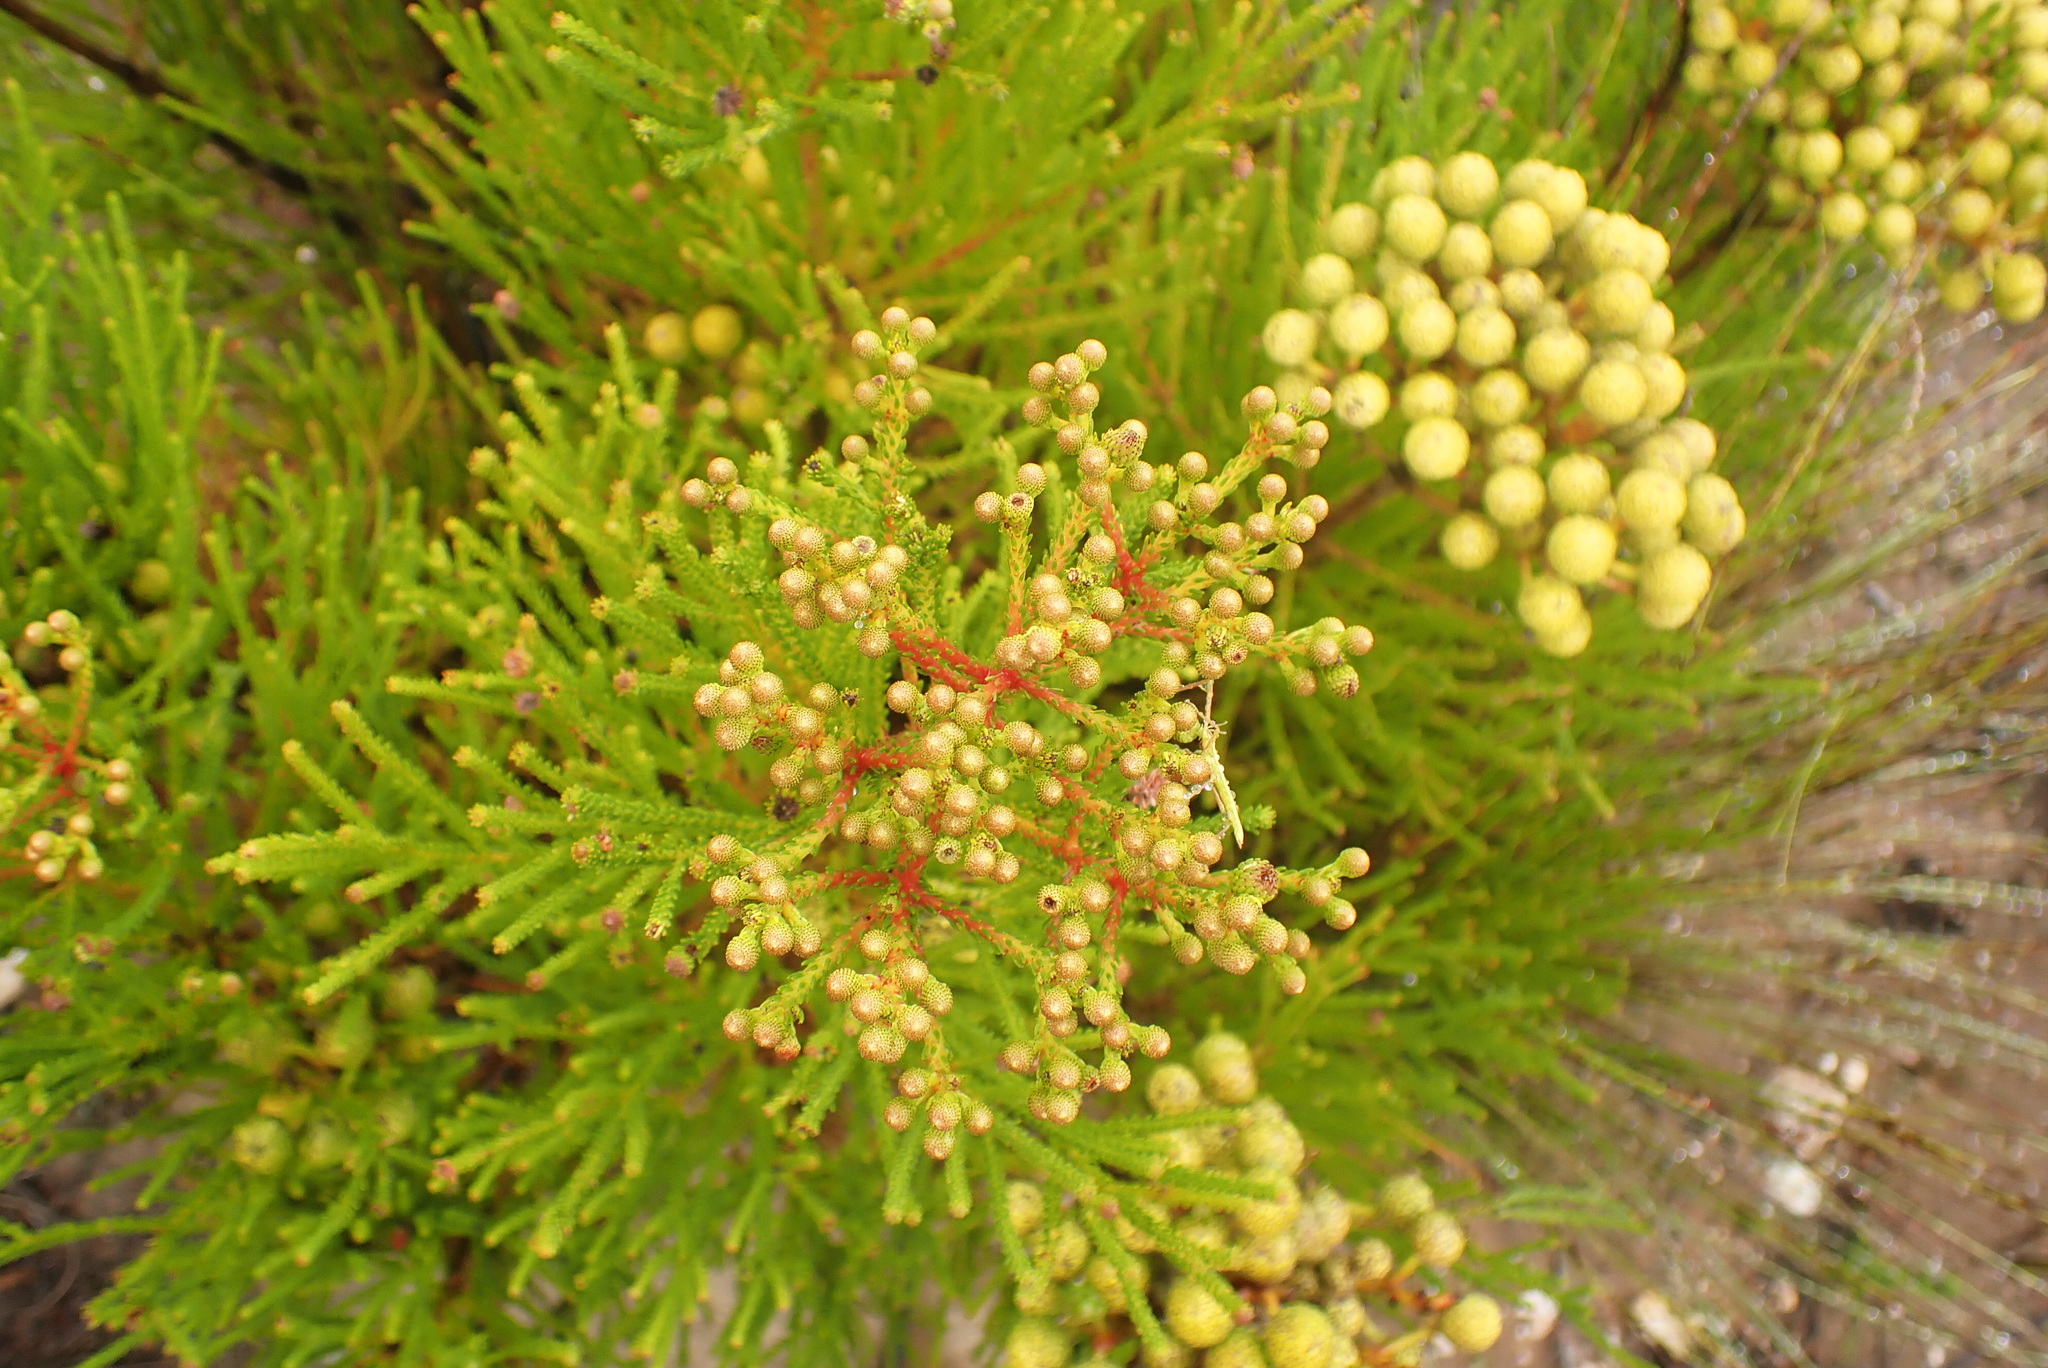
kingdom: Plantae
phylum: Tracheophyta
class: Magnoliopsida
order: Bruniales
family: Bruniaceae
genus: Berzelia
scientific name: Berzelia intermedia
